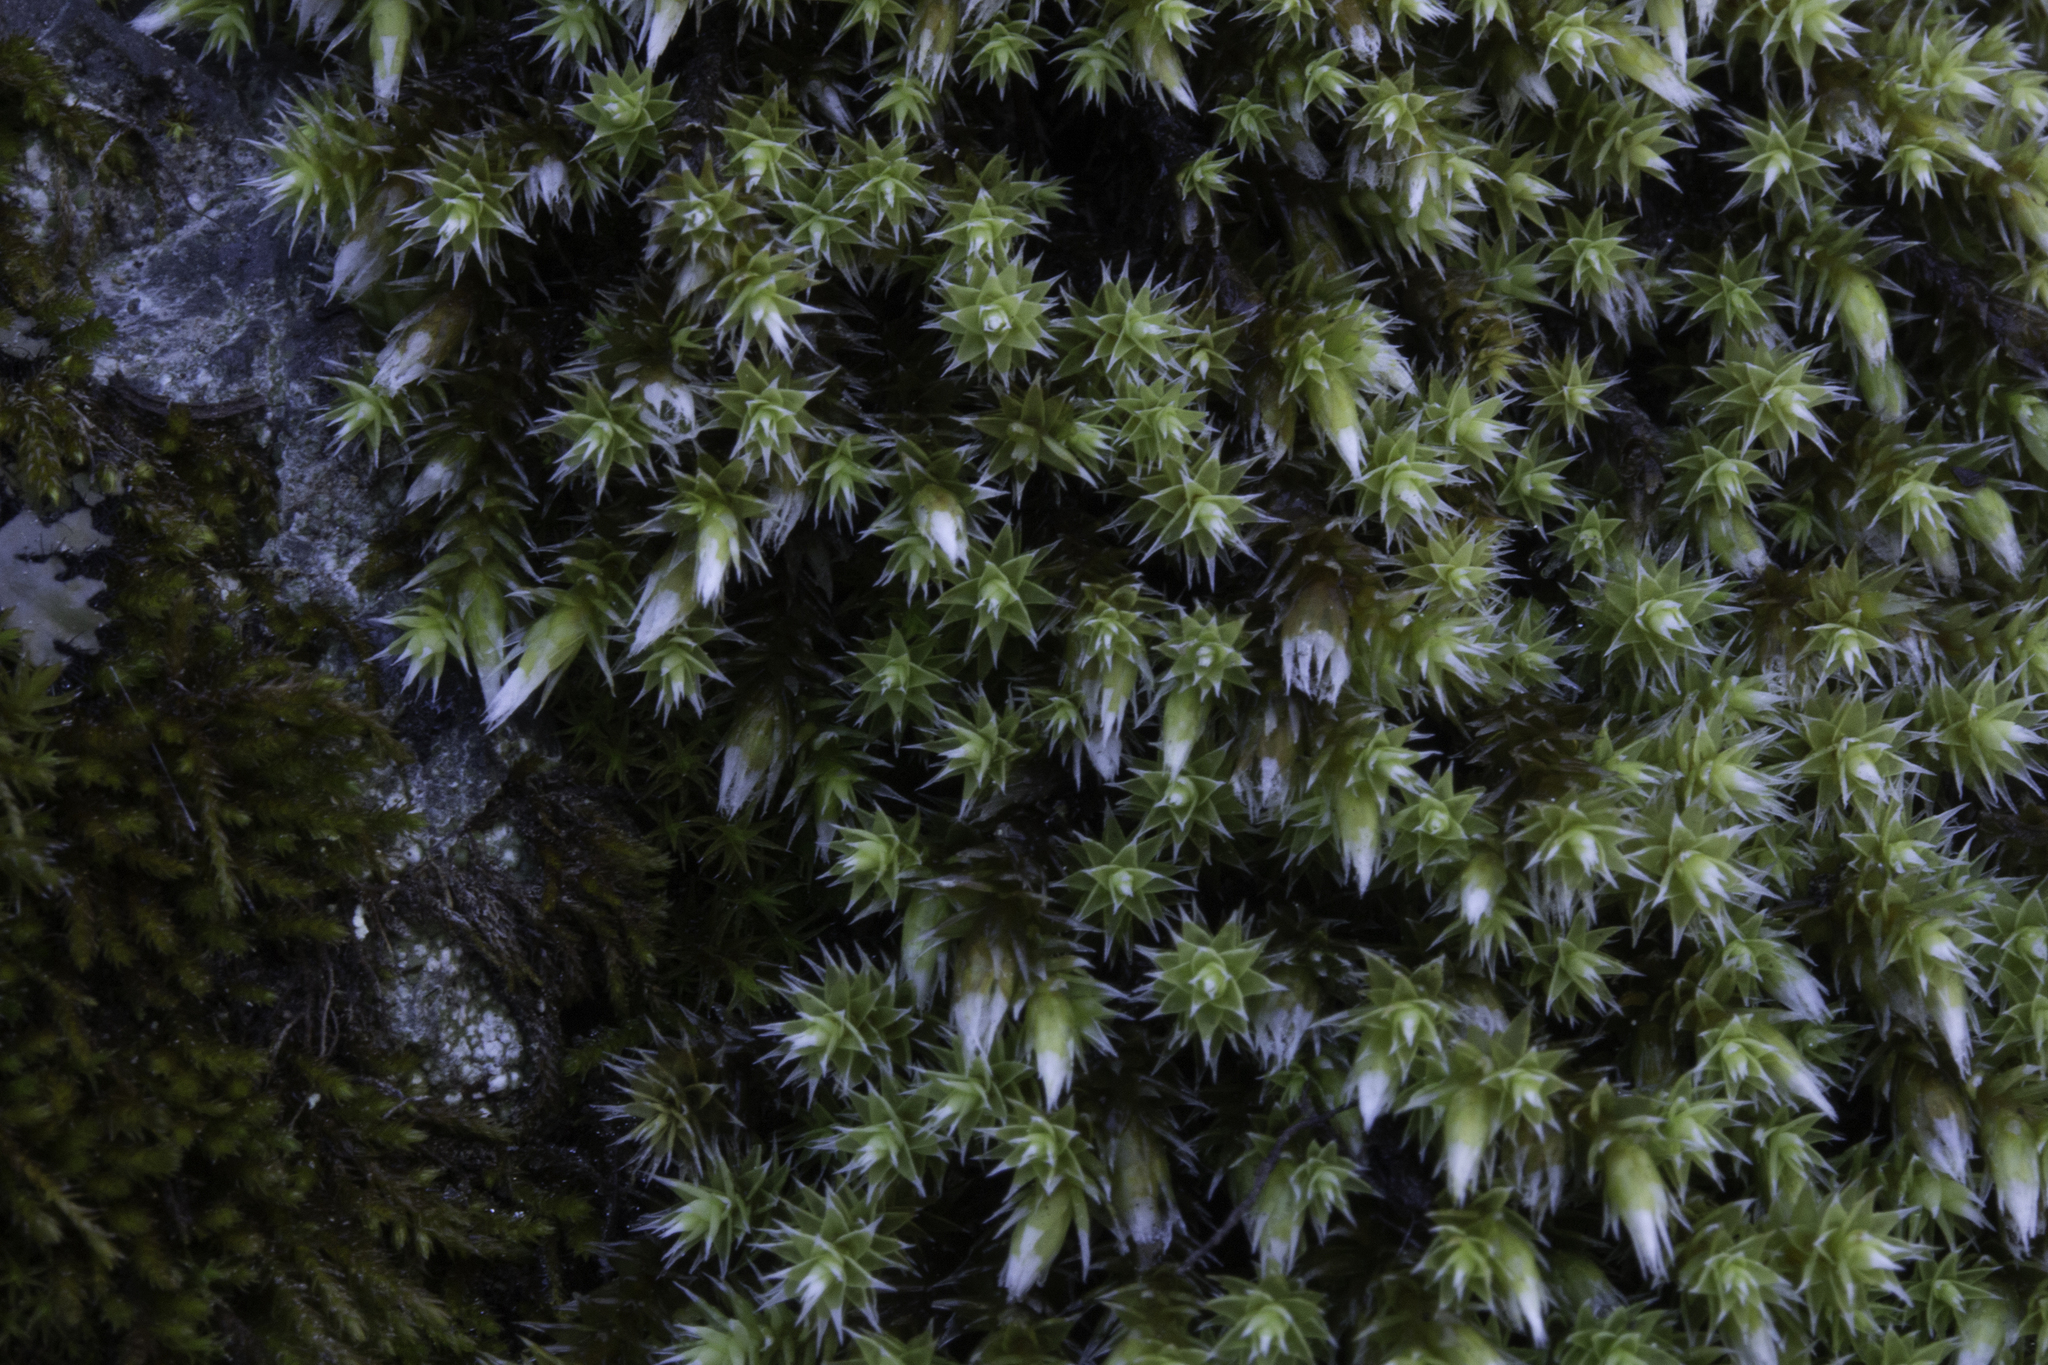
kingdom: Plantae
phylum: Bryophyta
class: Bryopsida
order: Hedwigiales
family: Hedwigiaceae
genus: Hedwigia
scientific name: Hedwigia ciliata
